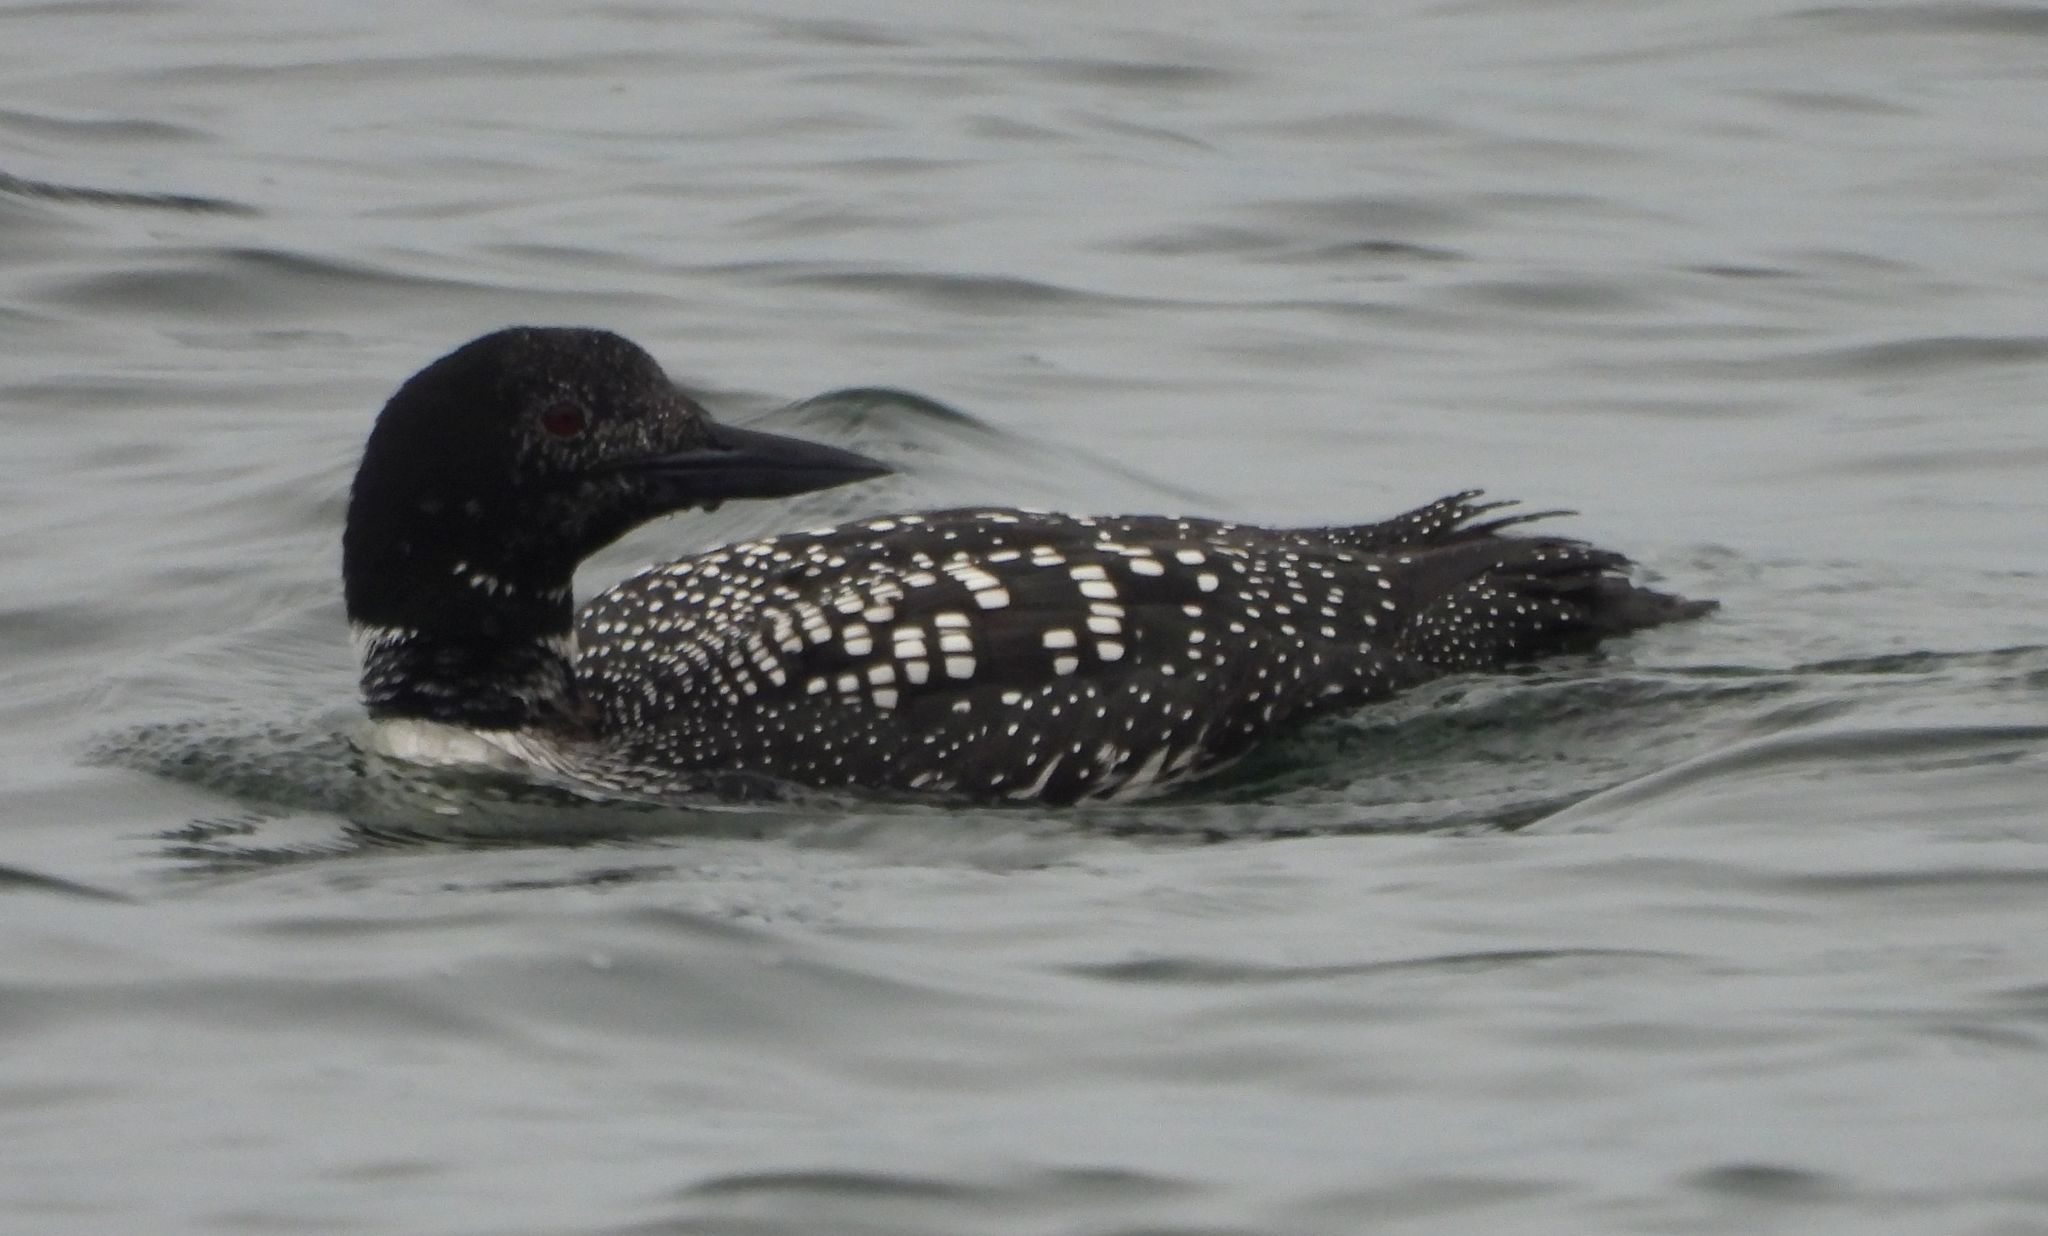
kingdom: Animalia
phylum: Chordata
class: Aves
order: Gaviiformes
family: Gaviidae
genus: Gavia
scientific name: Gavia immer
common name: Common loon
